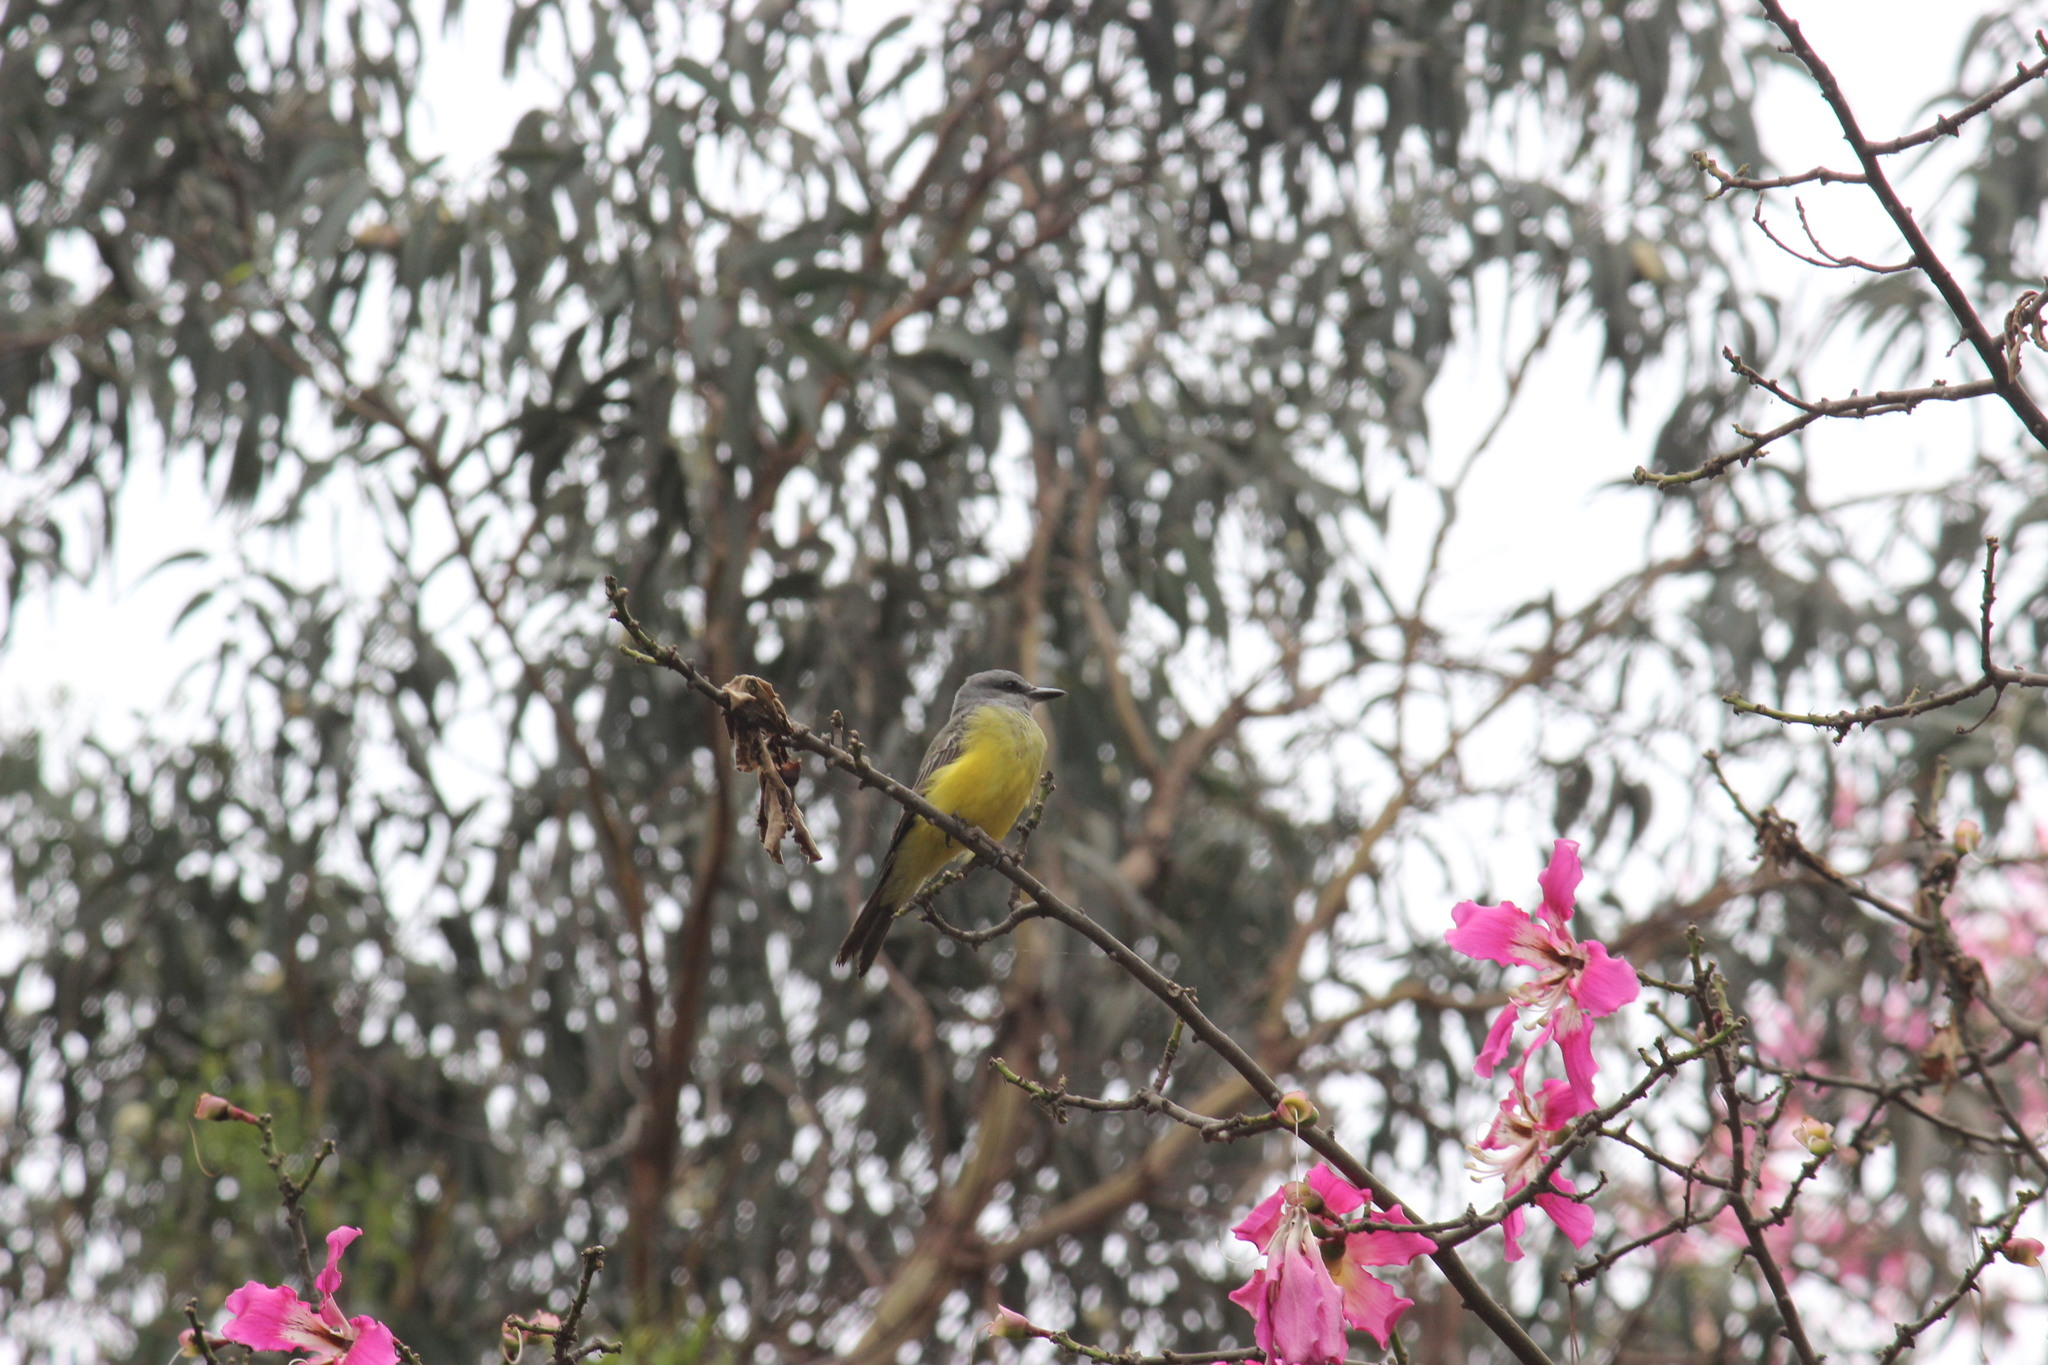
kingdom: Animalia
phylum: Chordata
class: Aves
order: Passeriformes
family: Tyrannidae
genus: Tyrannus
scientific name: Tyrannus melancholicus
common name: Tropical kingbird
